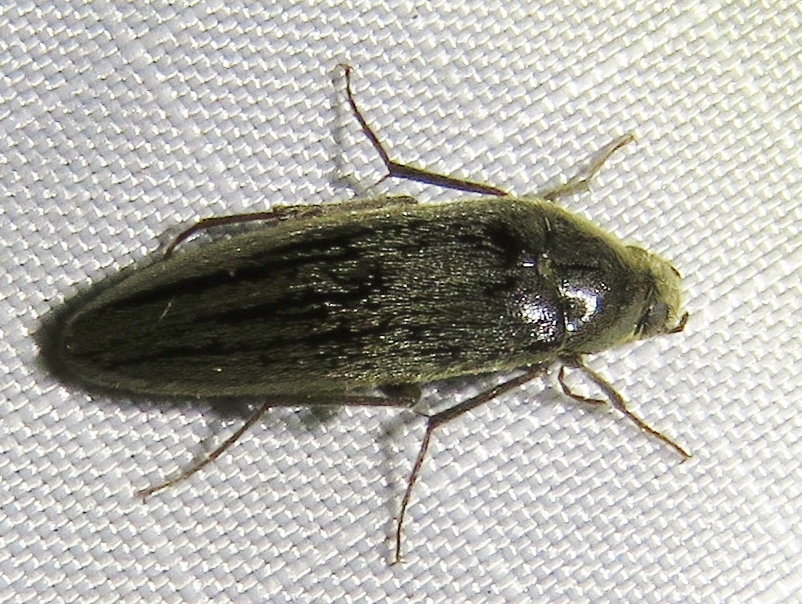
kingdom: Animalia
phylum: Arthropoda
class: Insecta
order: Coleoptera
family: Synchroidae
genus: Synchroa
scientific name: Synchroa punctata
